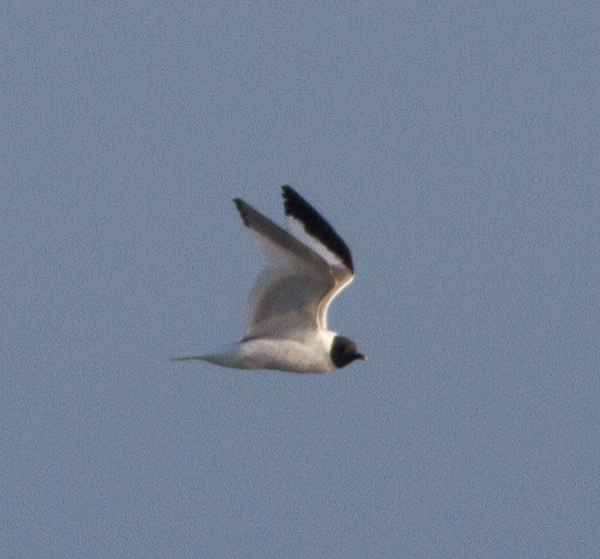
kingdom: Animalia
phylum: Chordata
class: Aves
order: Charadriiformes
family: Laridae
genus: Xema
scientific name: Xema sabini
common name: Sabine's gull
